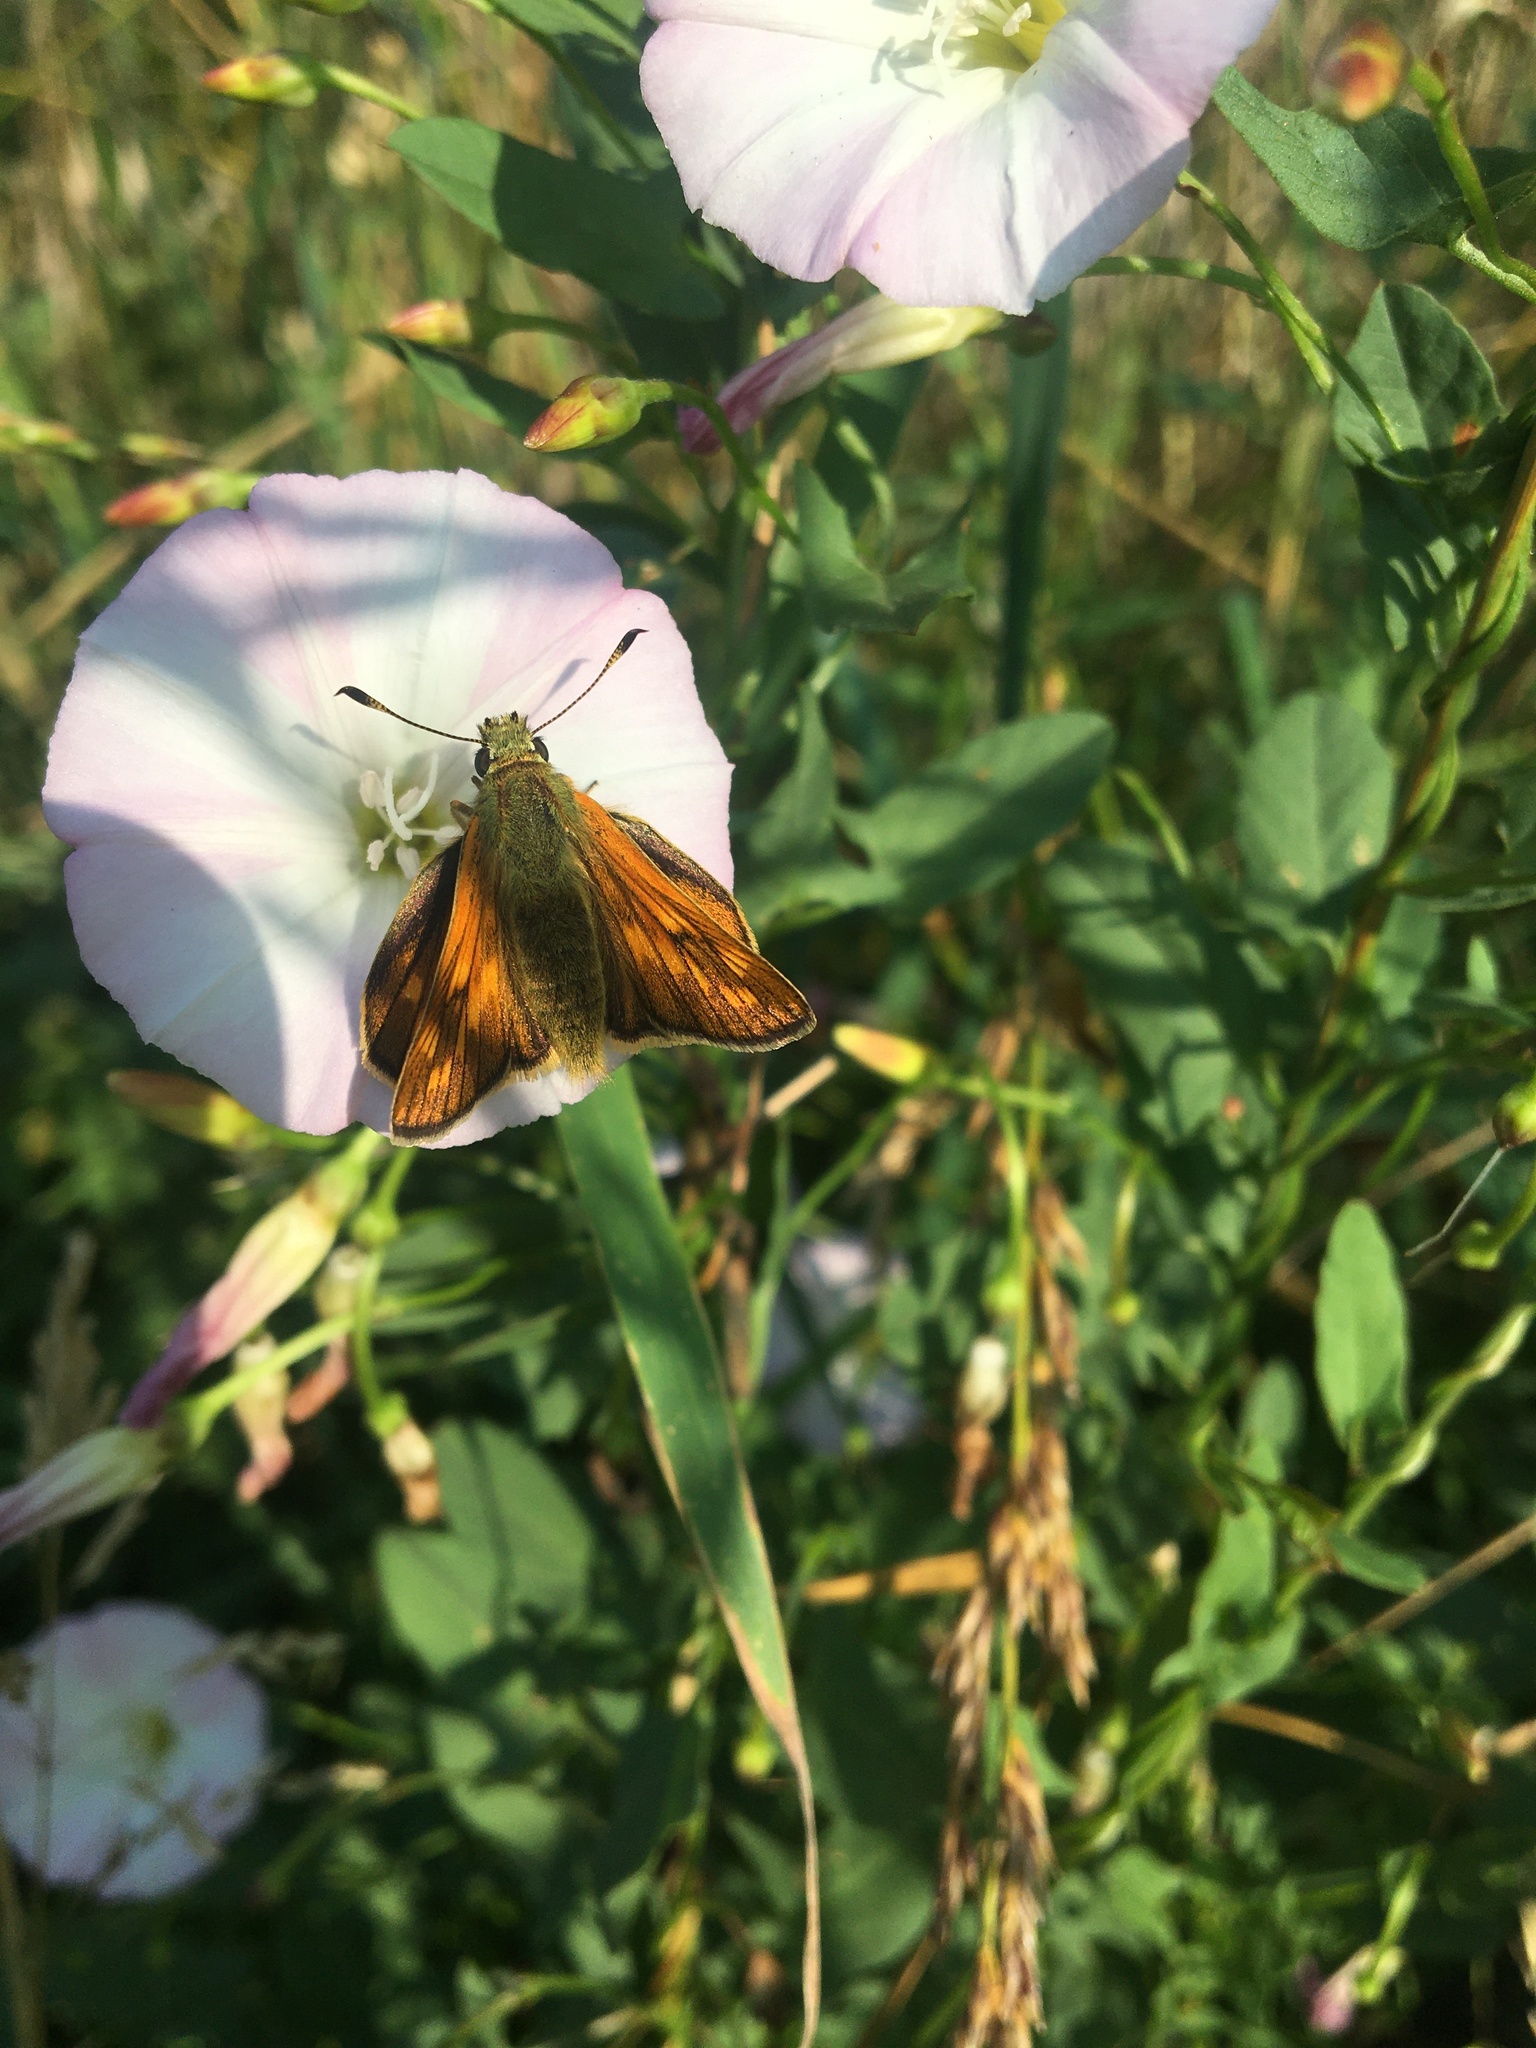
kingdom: Animalia
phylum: Arthropoda
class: Insecta
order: Lepidoptera
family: Hesperiidae
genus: Ochlodes
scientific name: Ochlodes venata
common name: Large skipper
